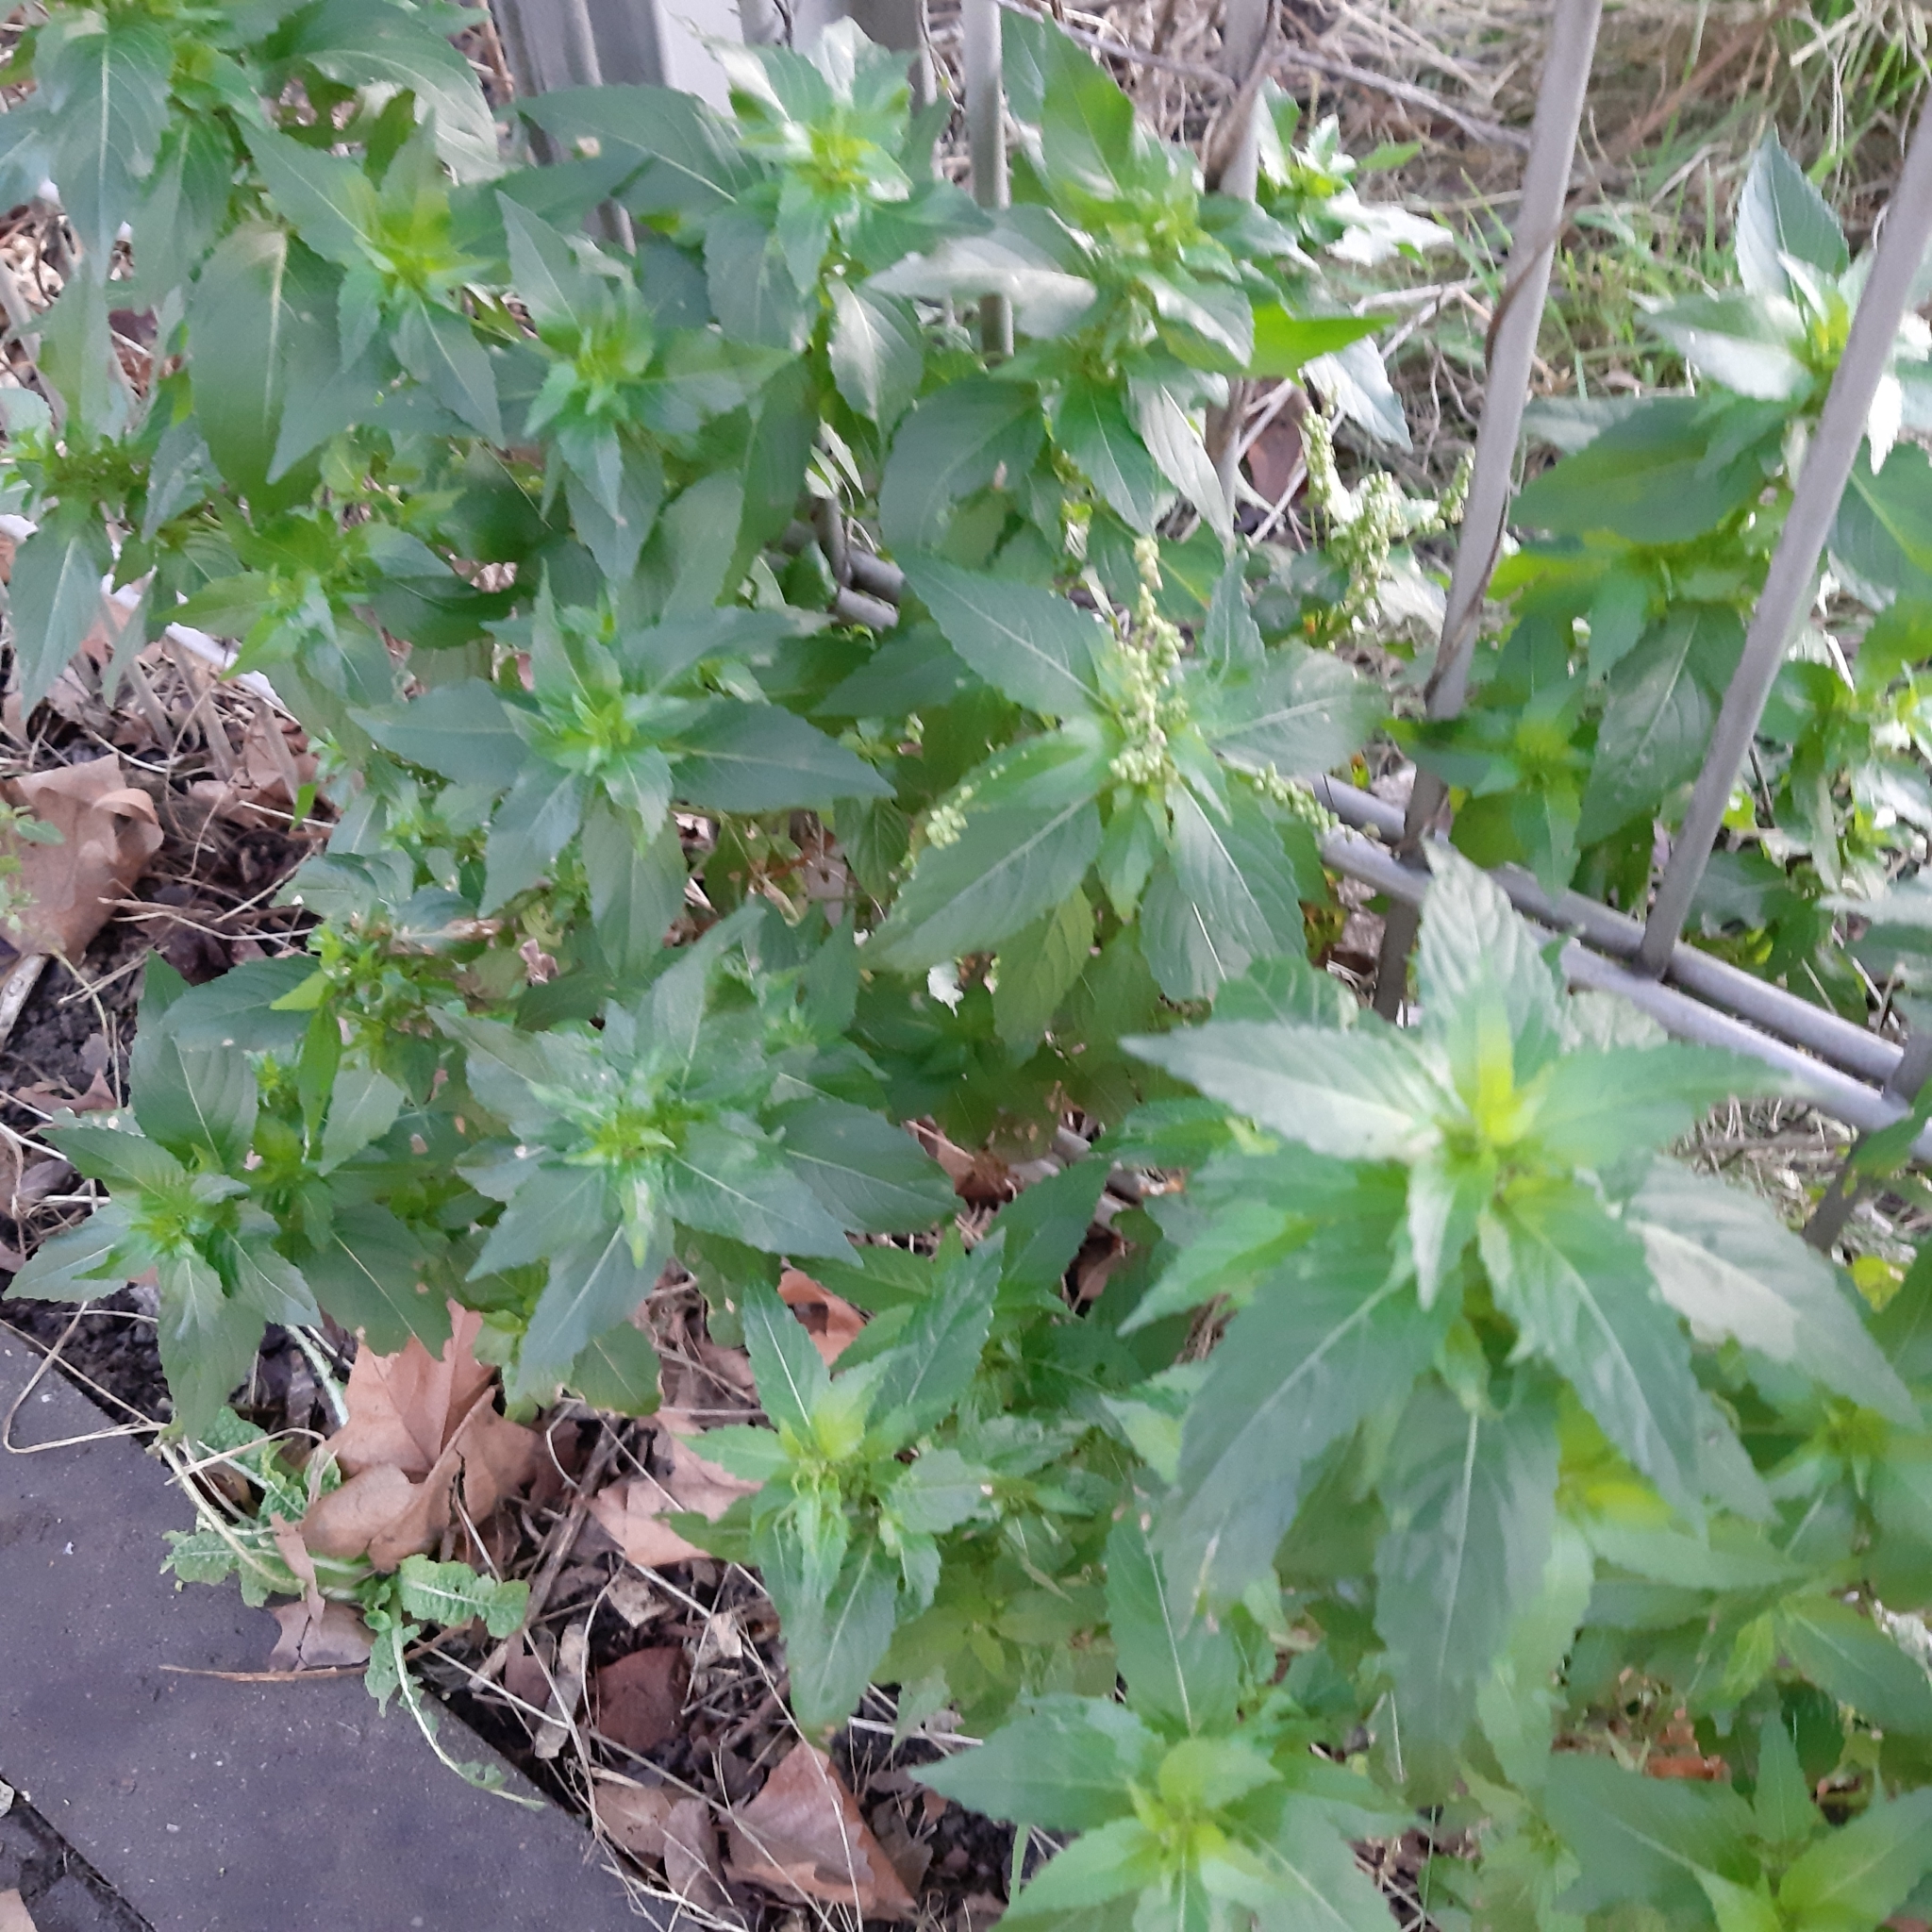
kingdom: Plantae
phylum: Tracheophyta
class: Magnoliopsida
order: Malpighiales
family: Euphorbiaceae
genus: Mercurialis
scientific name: Mercurialis annua
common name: Annual mercury
